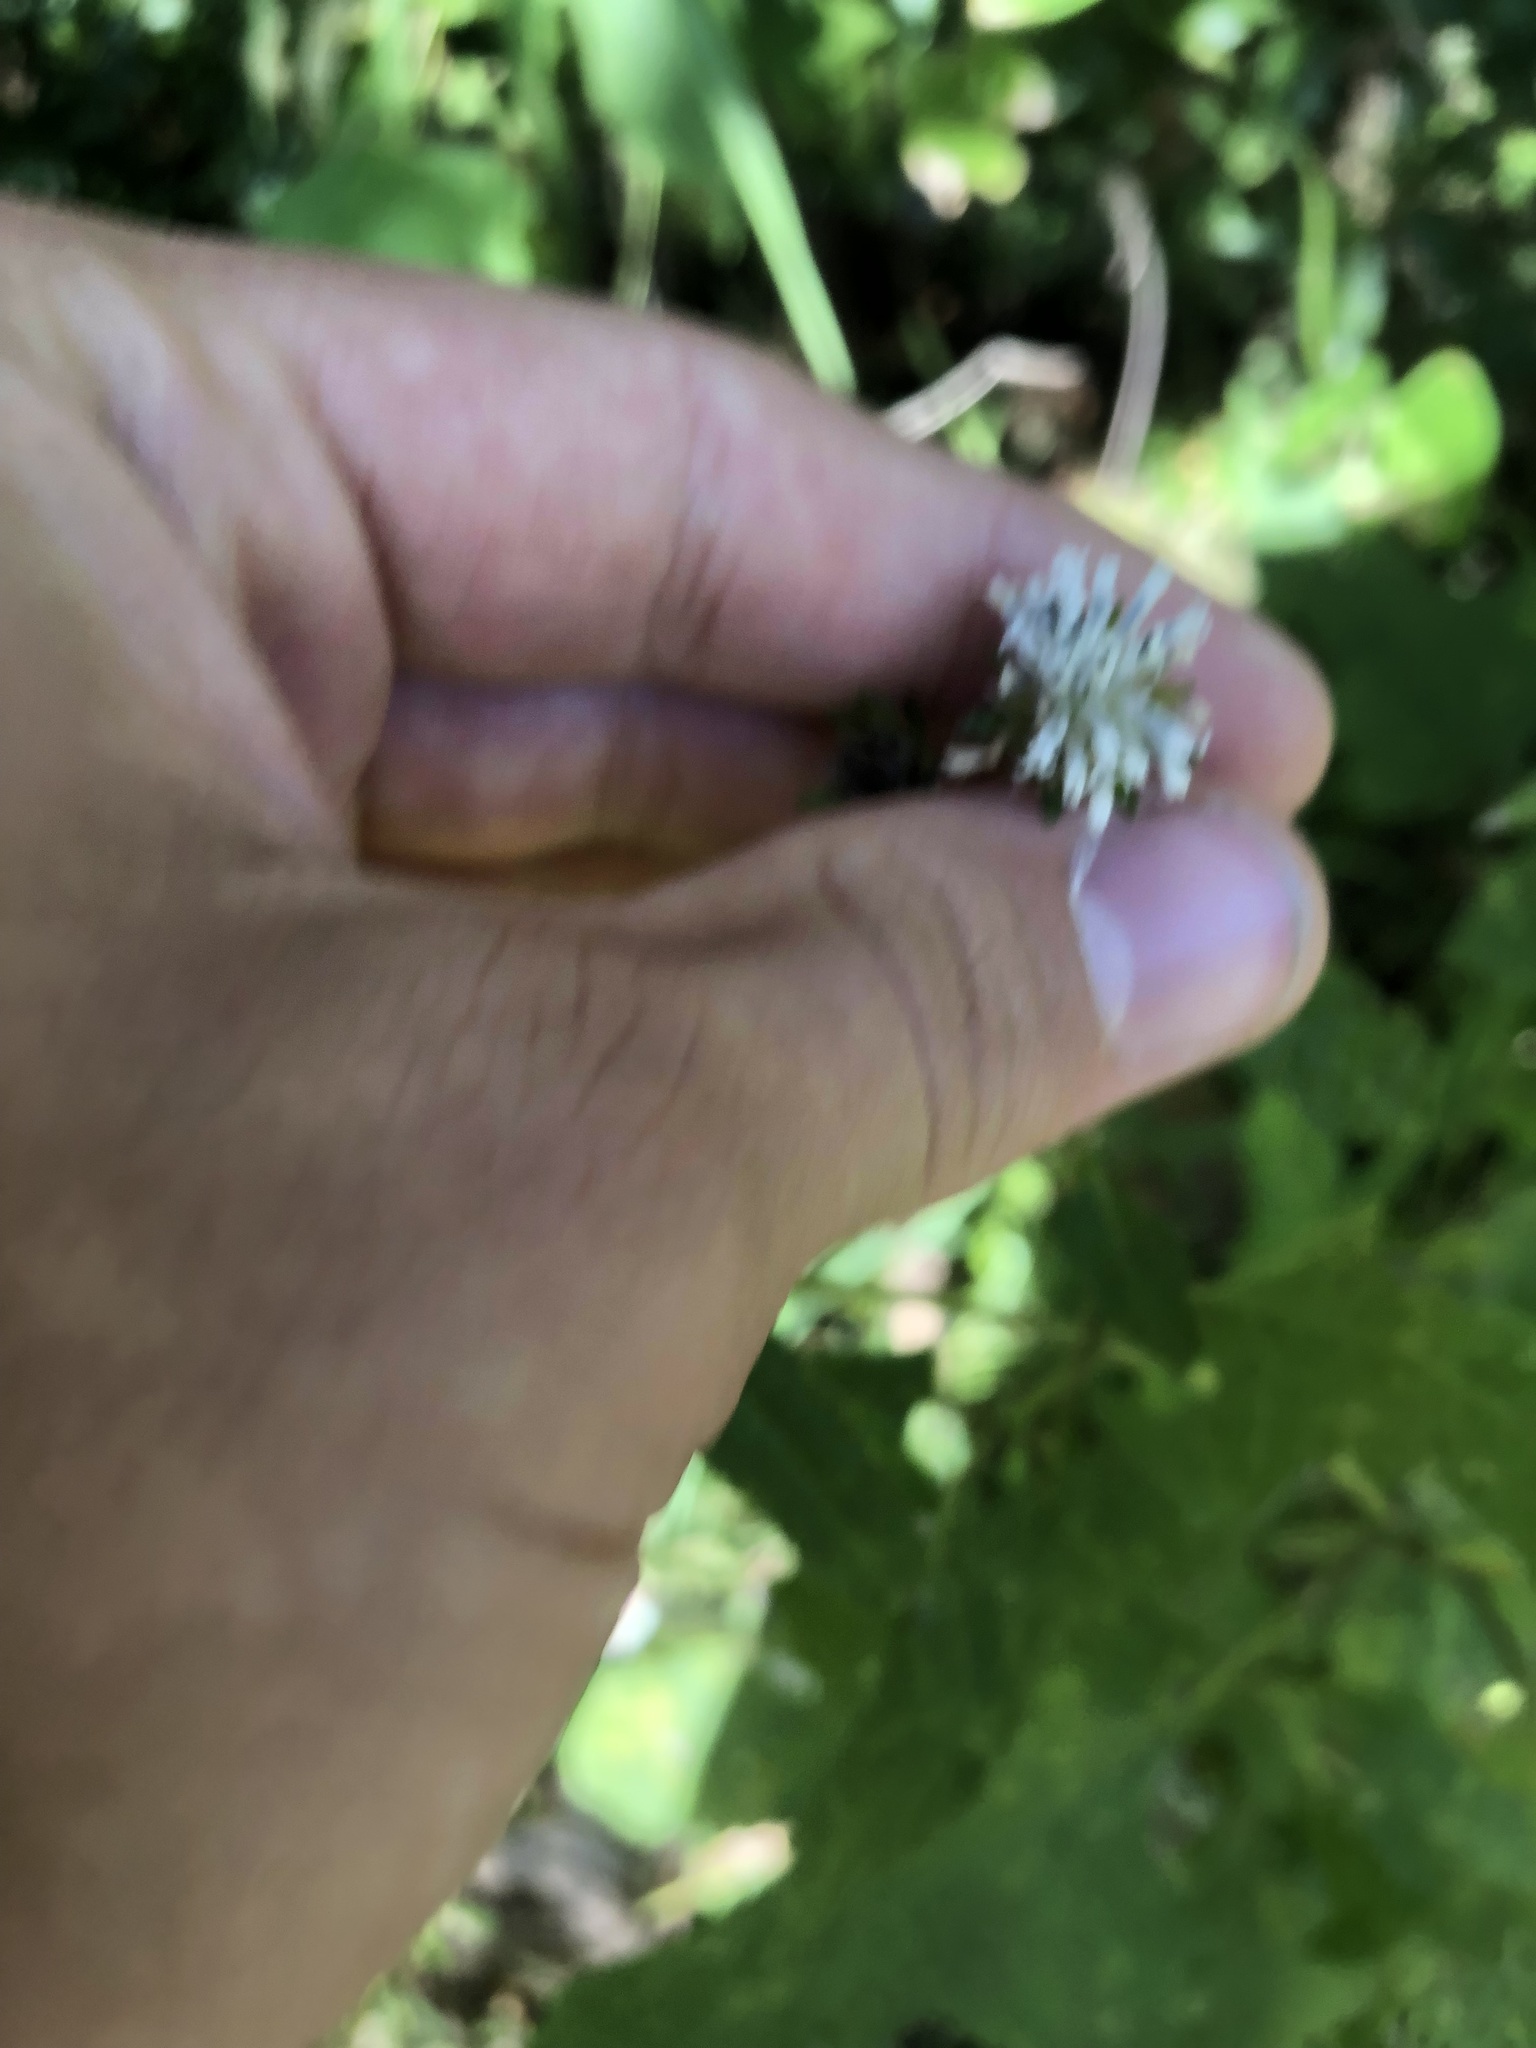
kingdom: Plantae
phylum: Tracheophyta
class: Magnoliopsida
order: Asterales
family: Asteraceae
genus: Melanthera
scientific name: Melanthera nivea
